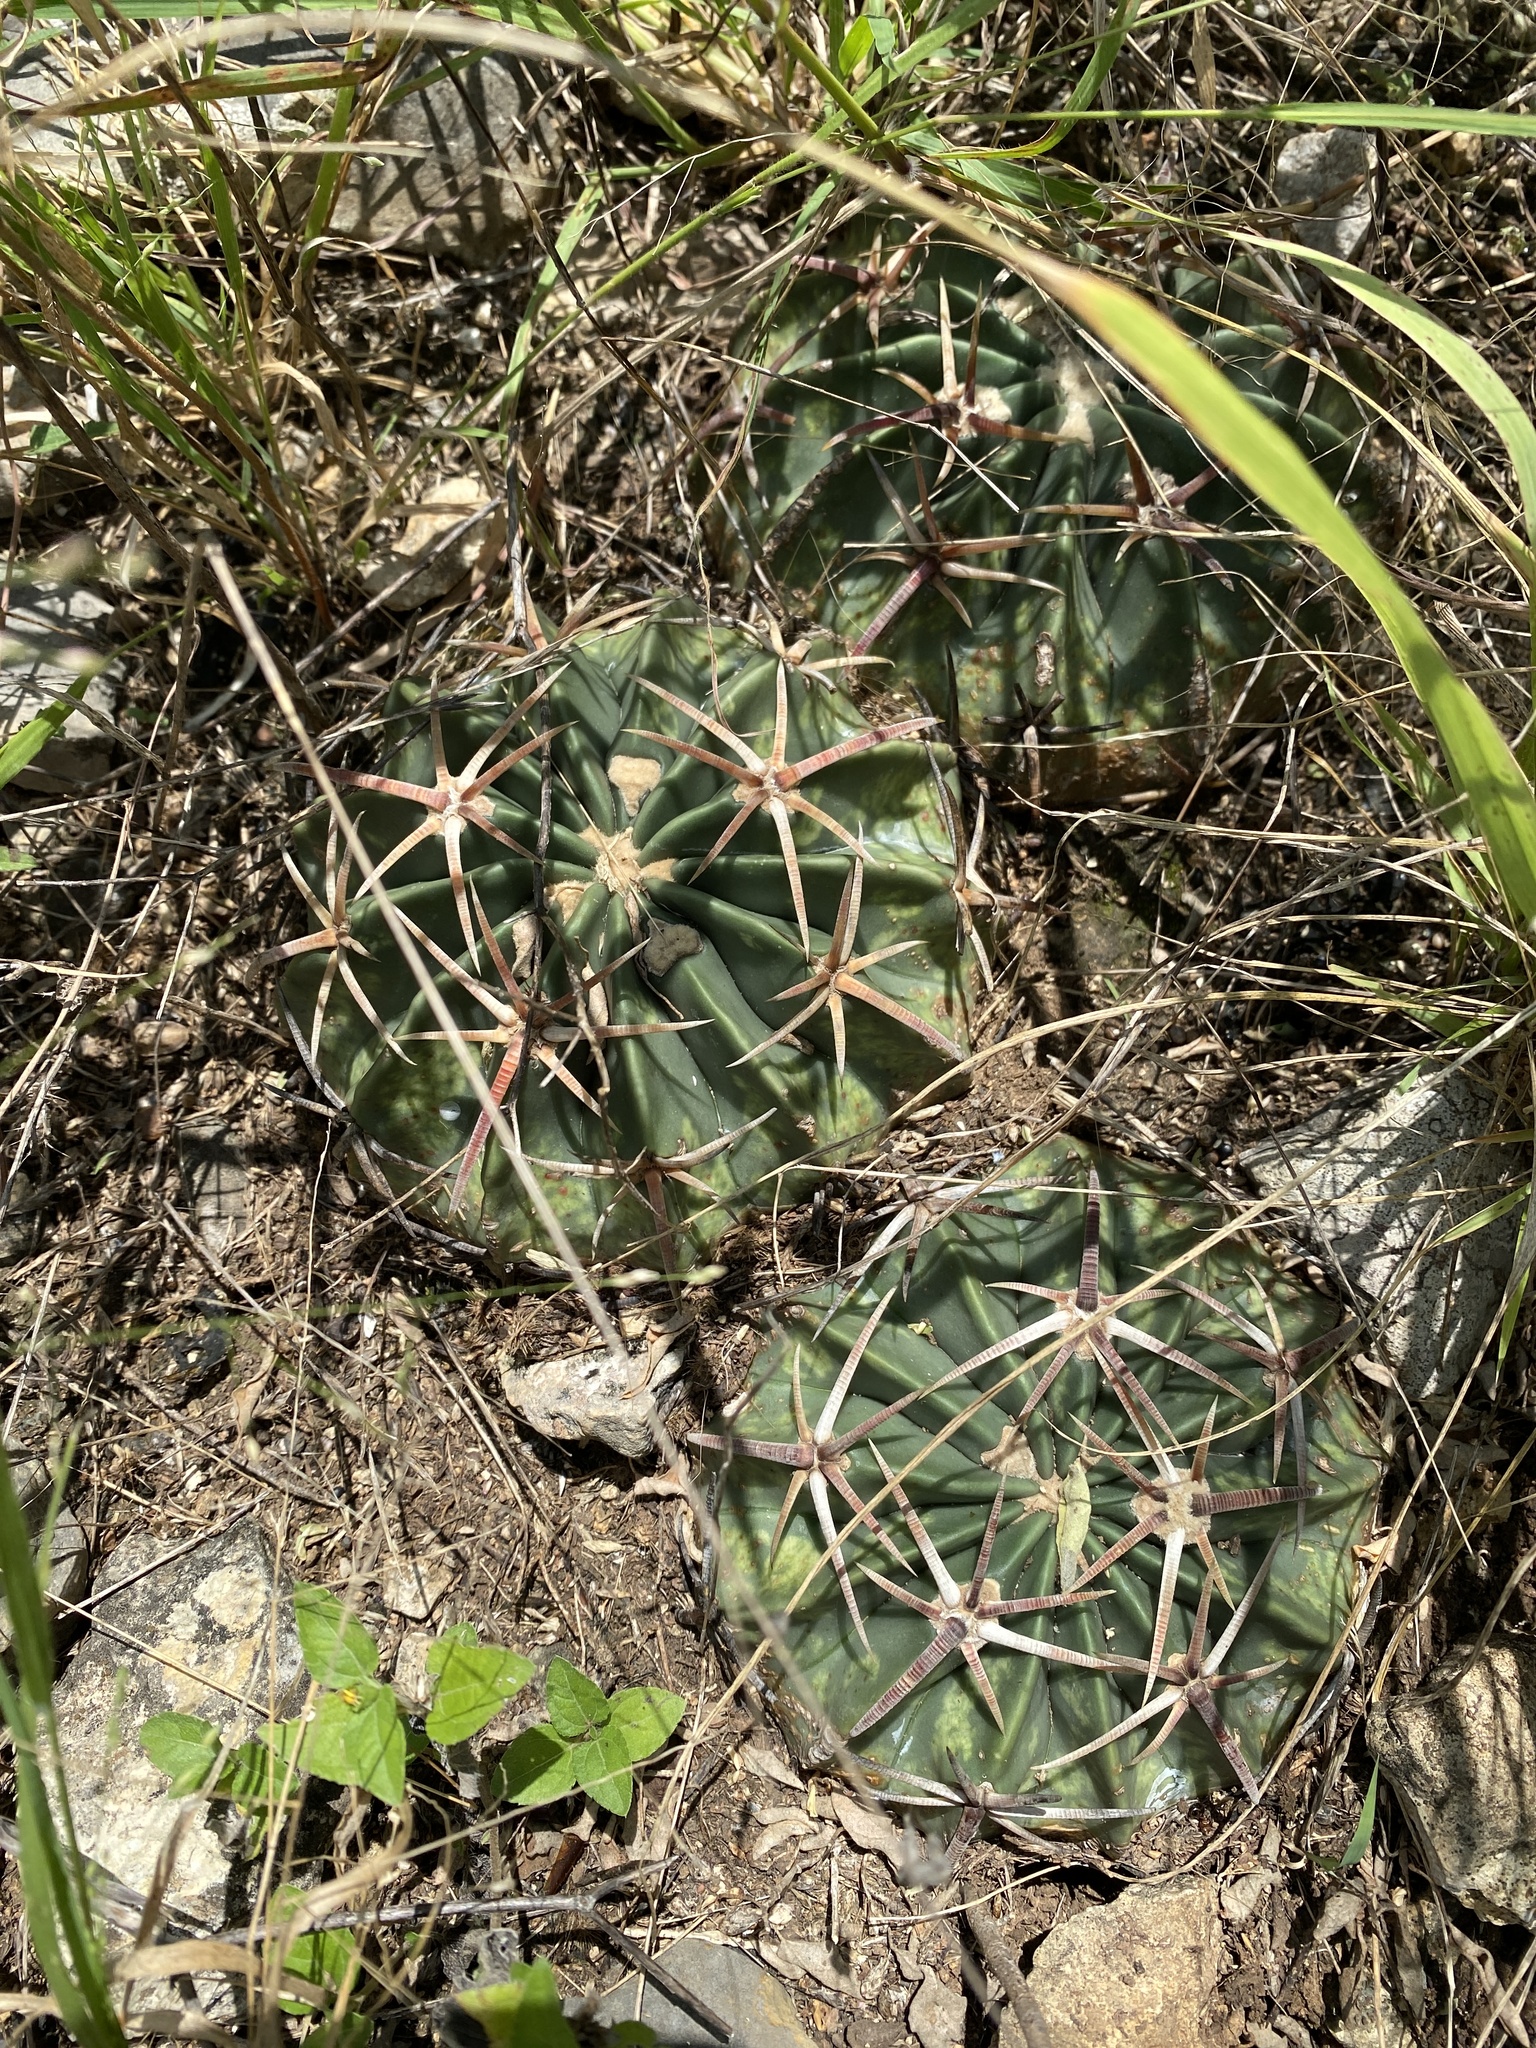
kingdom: Plantae
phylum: Tracheophyta
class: Magnoliopsida
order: Caryophyllales
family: Cactaceae
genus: Echinocactus
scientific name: Echinocactus texensis
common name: Devil's pincushion
